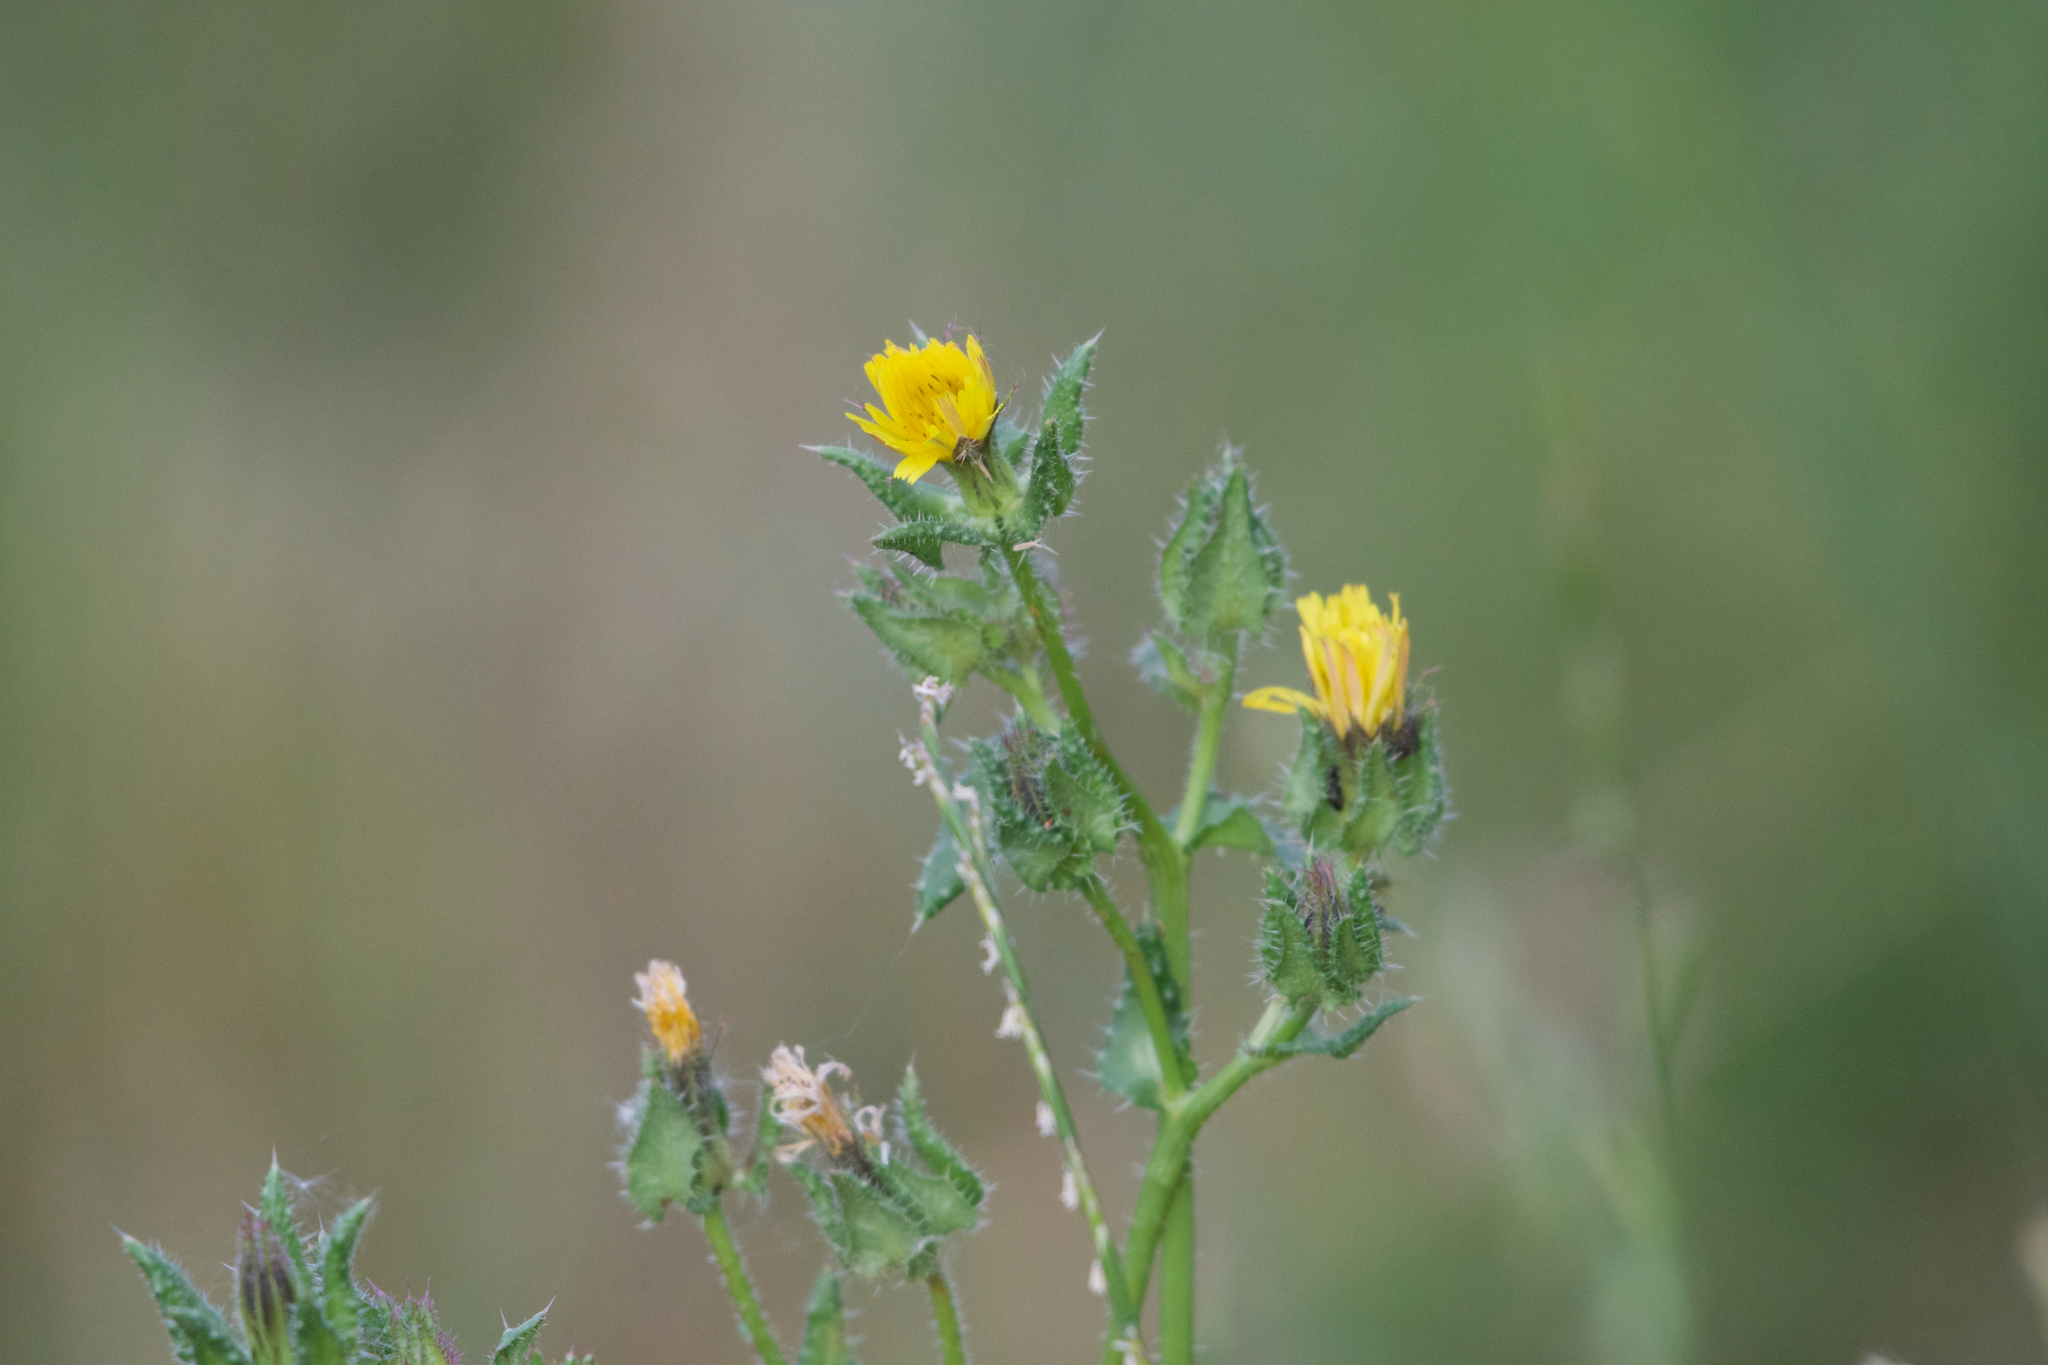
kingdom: Plantae
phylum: Tracheophyta
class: Magnoliopsida
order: Asterales
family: Asteraceae
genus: Helminthotheca
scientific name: Helminthotheca echioides
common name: Ox-tongue
